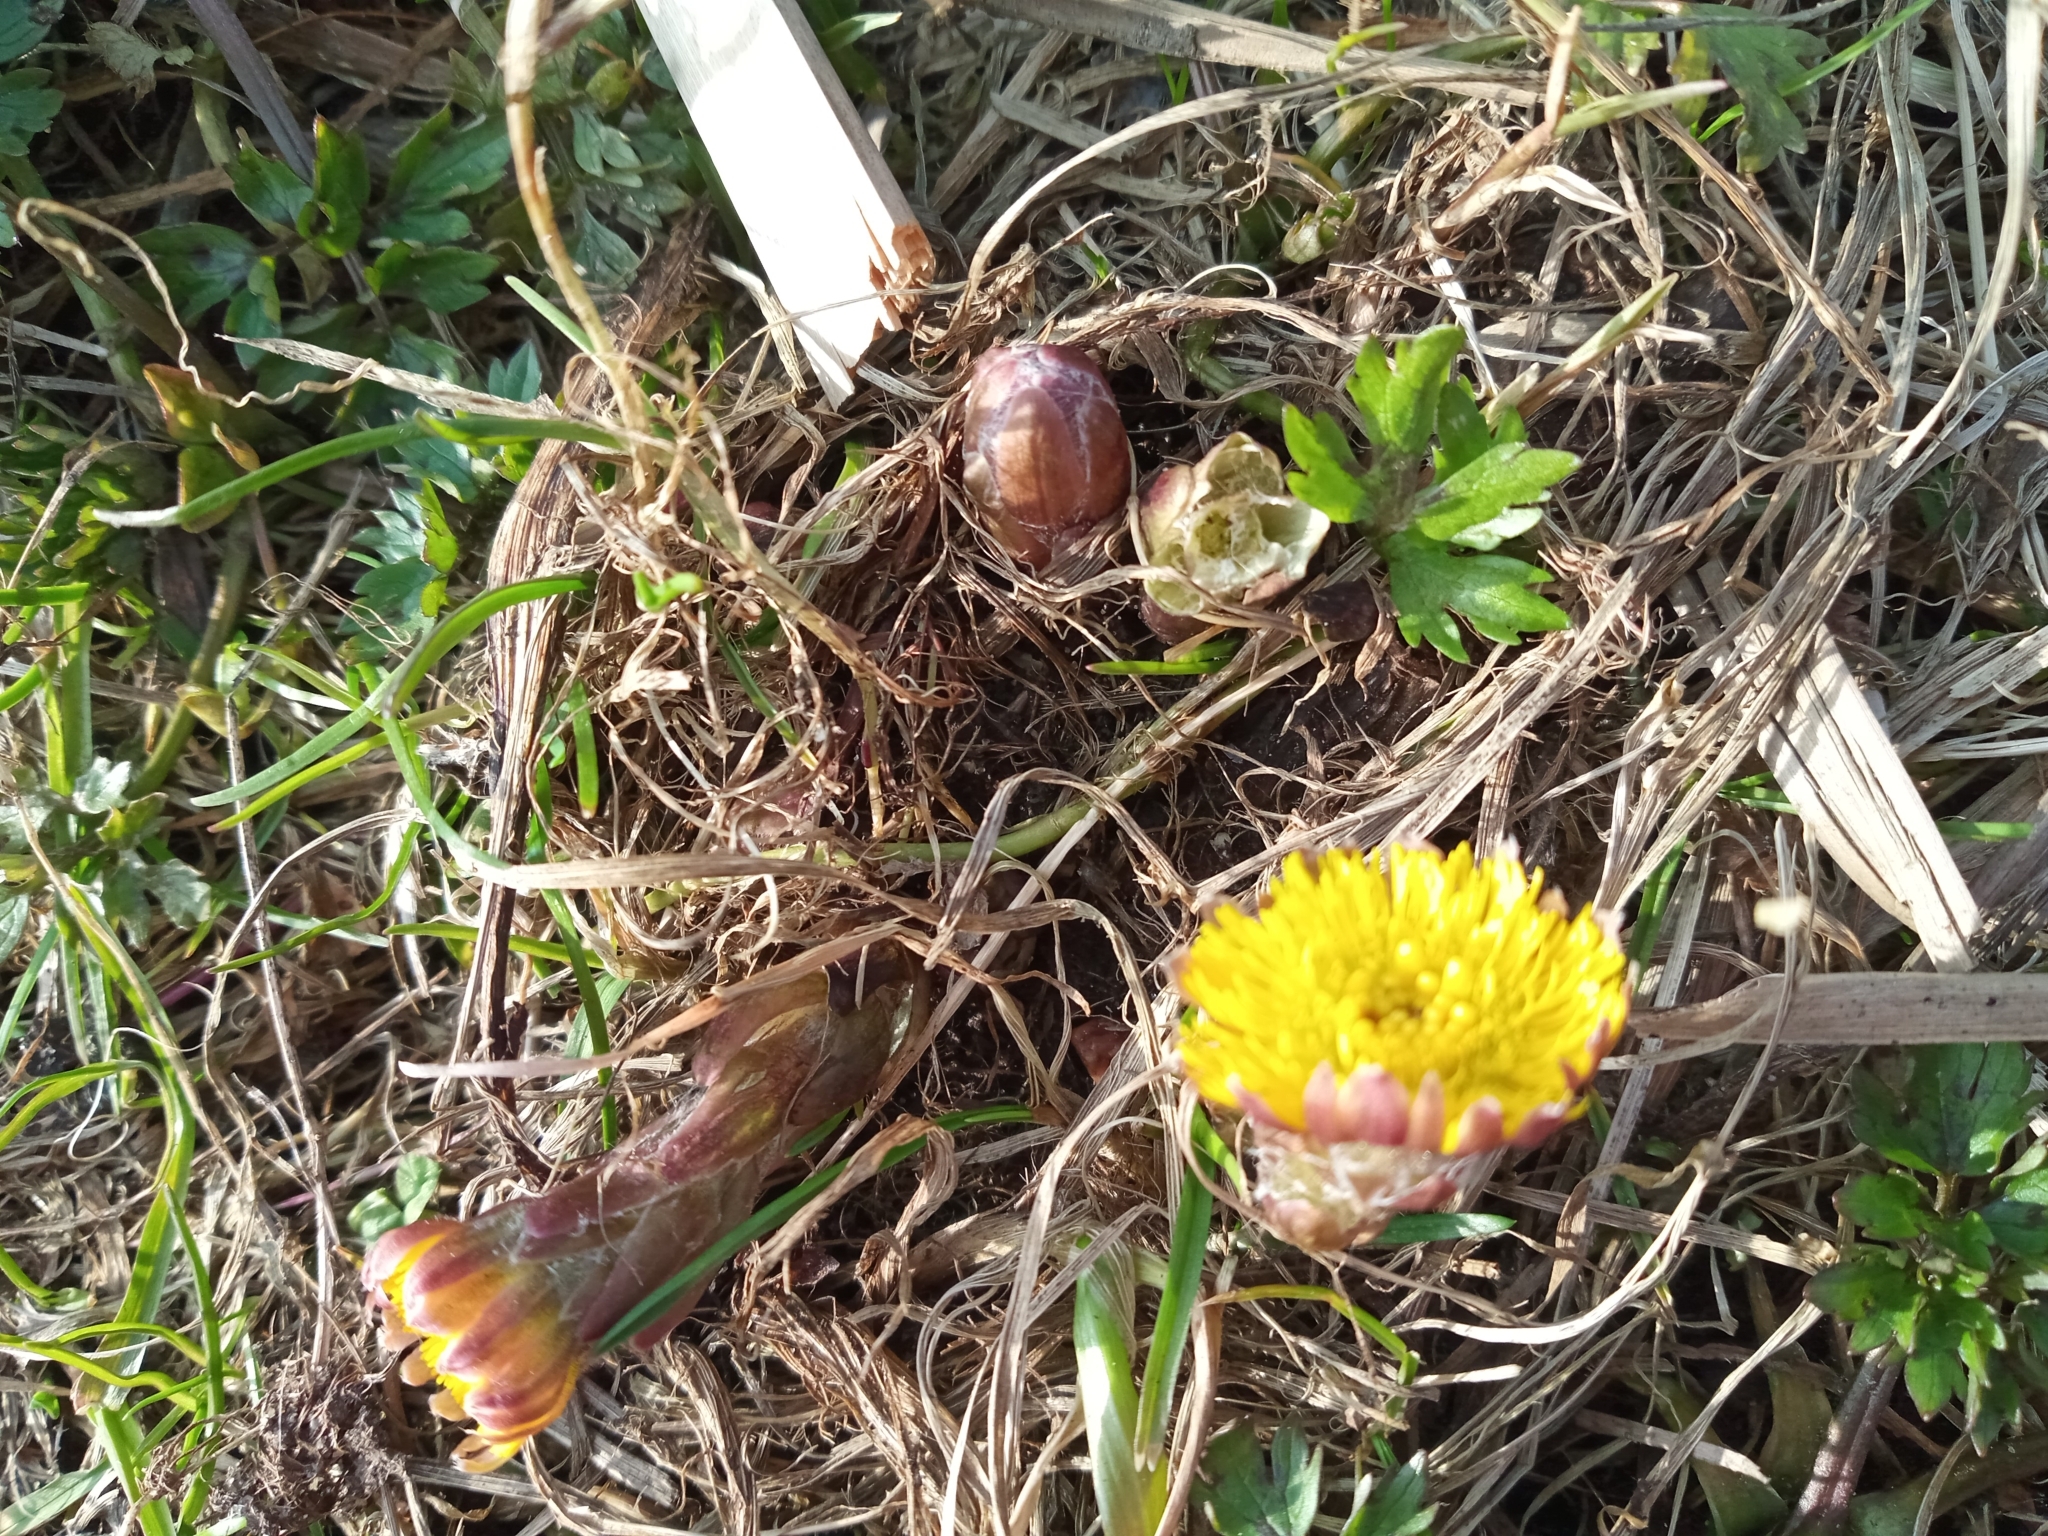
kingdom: Plantae
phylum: Tracheophyta
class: Magnoliopsida
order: Asterales
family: Asteraceae
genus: Tussilago
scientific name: Tussilago farfara
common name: Coltsfoot
